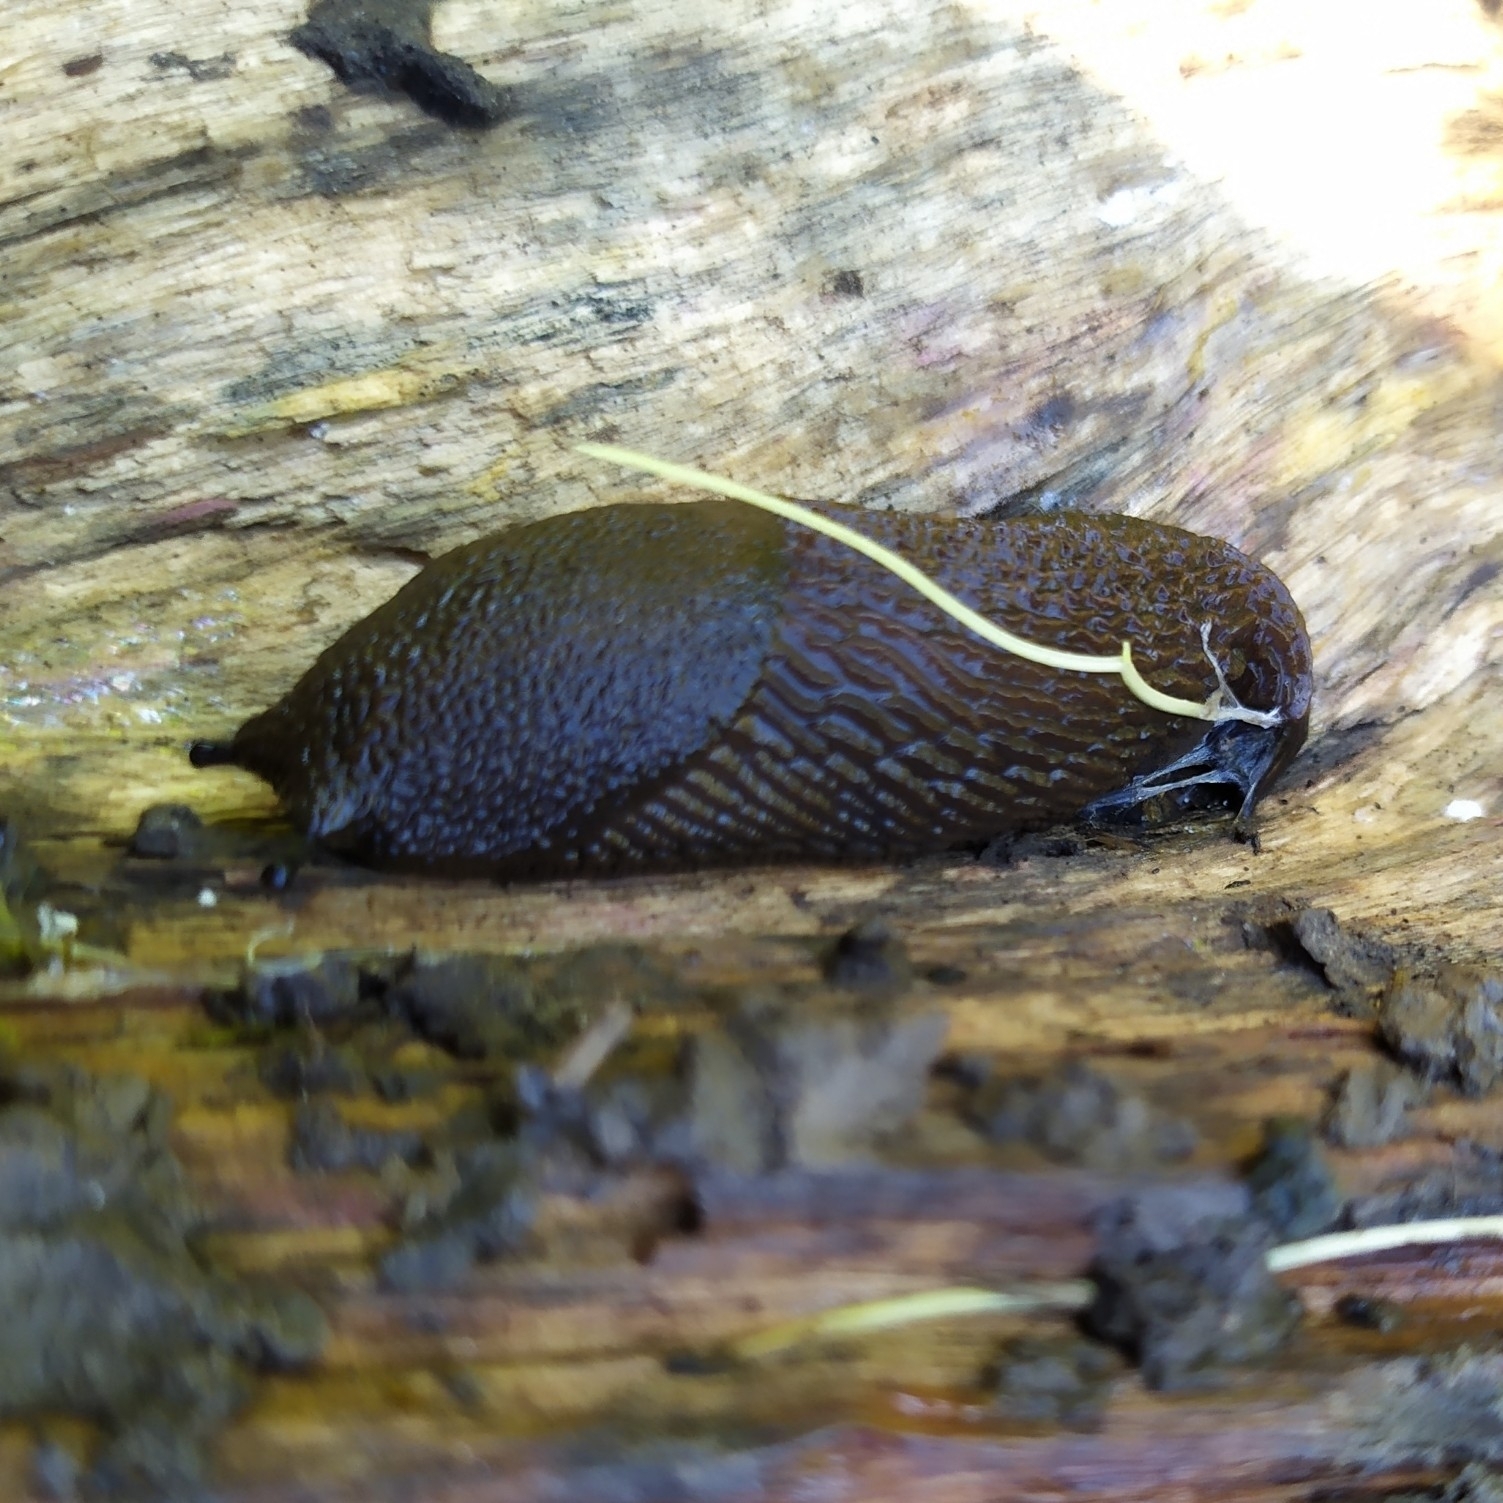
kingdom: Animalia
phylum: Mollusca
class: Gastropoda
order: Stylommatophora
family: Arionidae
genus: Arion
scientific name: Arion vulgaris
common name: Lusitanian slug
